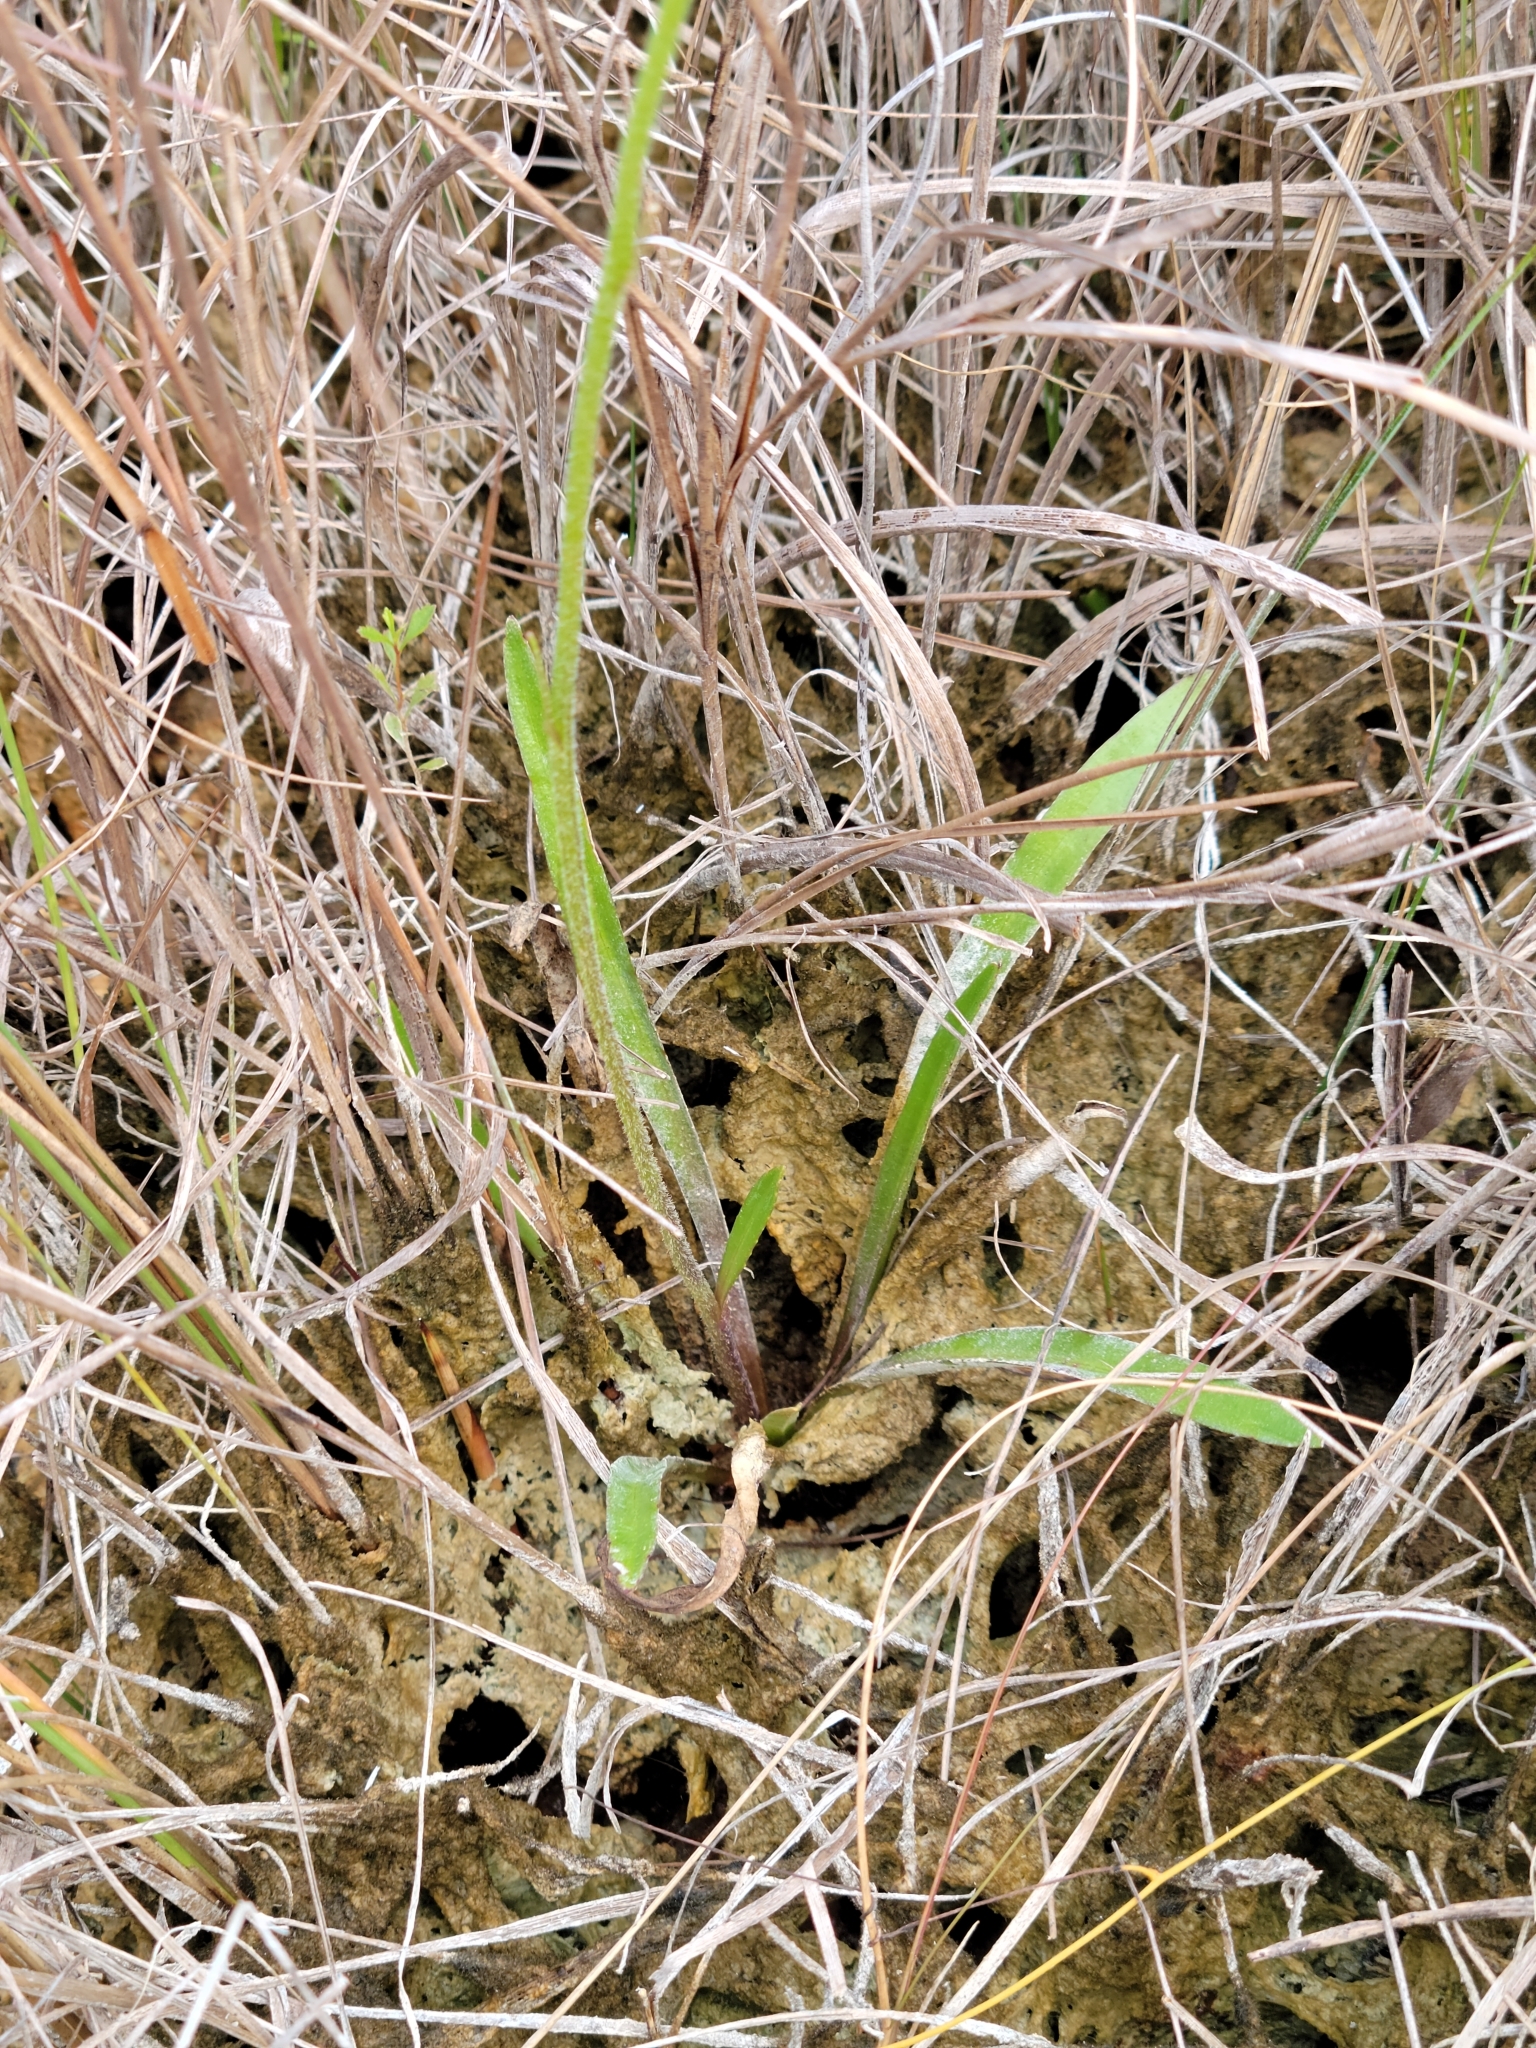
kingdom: Plantae
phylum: Tracheophyta
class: Magnoliopsida
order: Asterales
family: Asteraceae
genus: Helenium
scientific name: Helenium pinnatifidum
